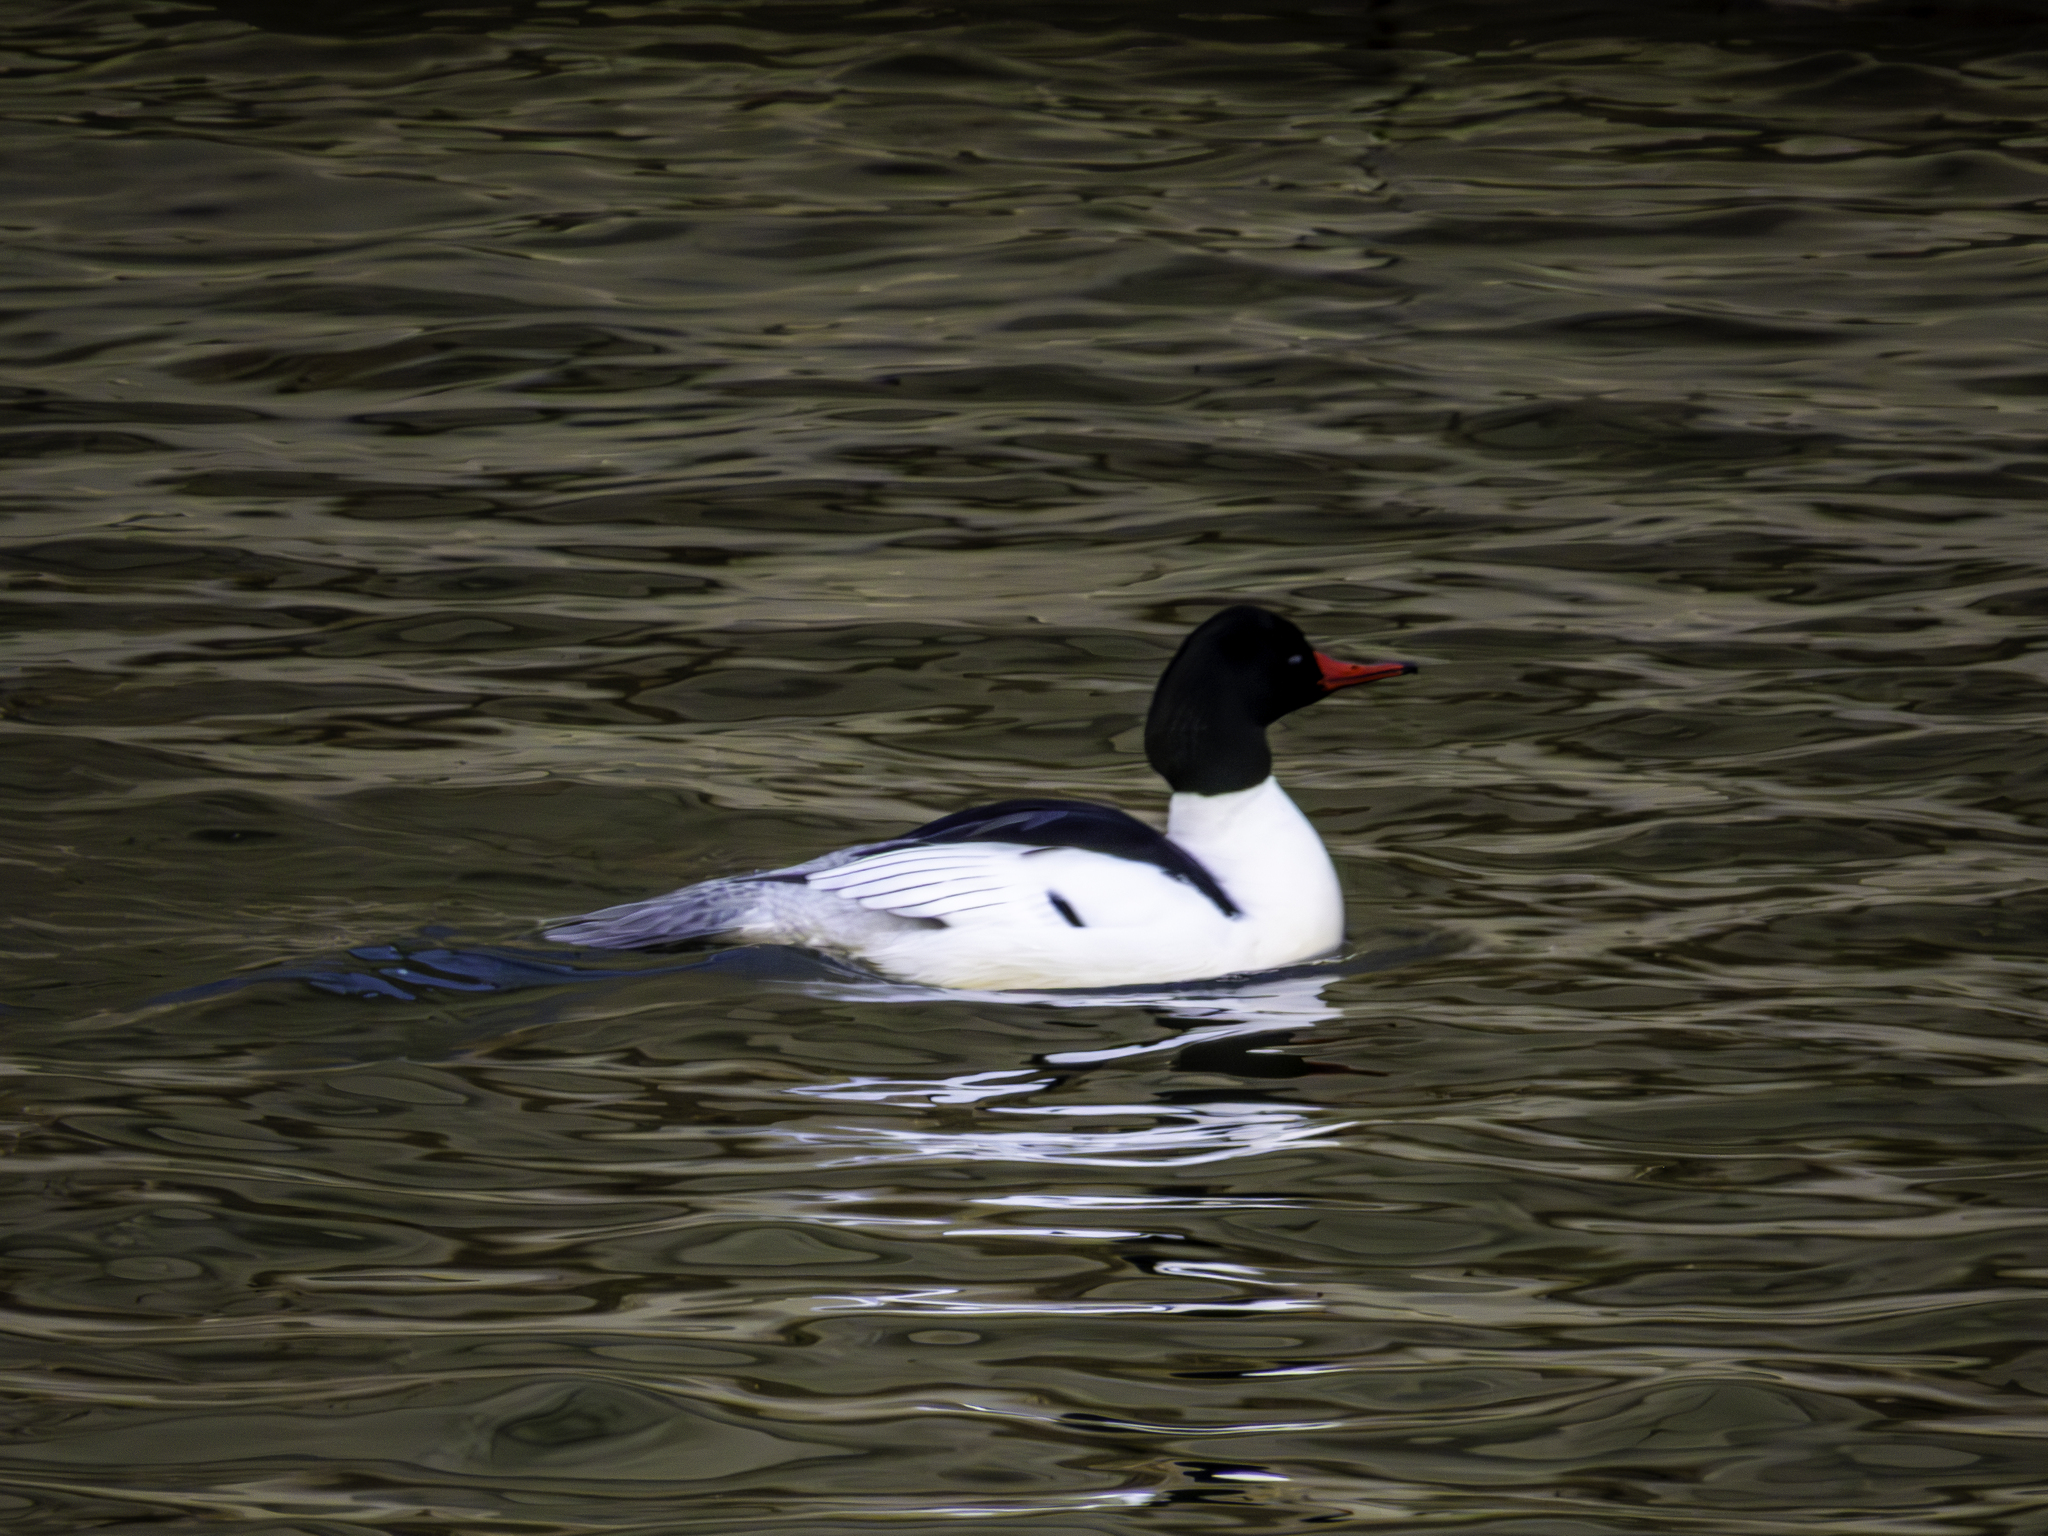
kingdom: Animalia
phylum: Chordata
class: Aves
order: Anseriformes
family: Anatidae
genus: Mergus
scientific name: Mergus merganser
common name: Common merganser
